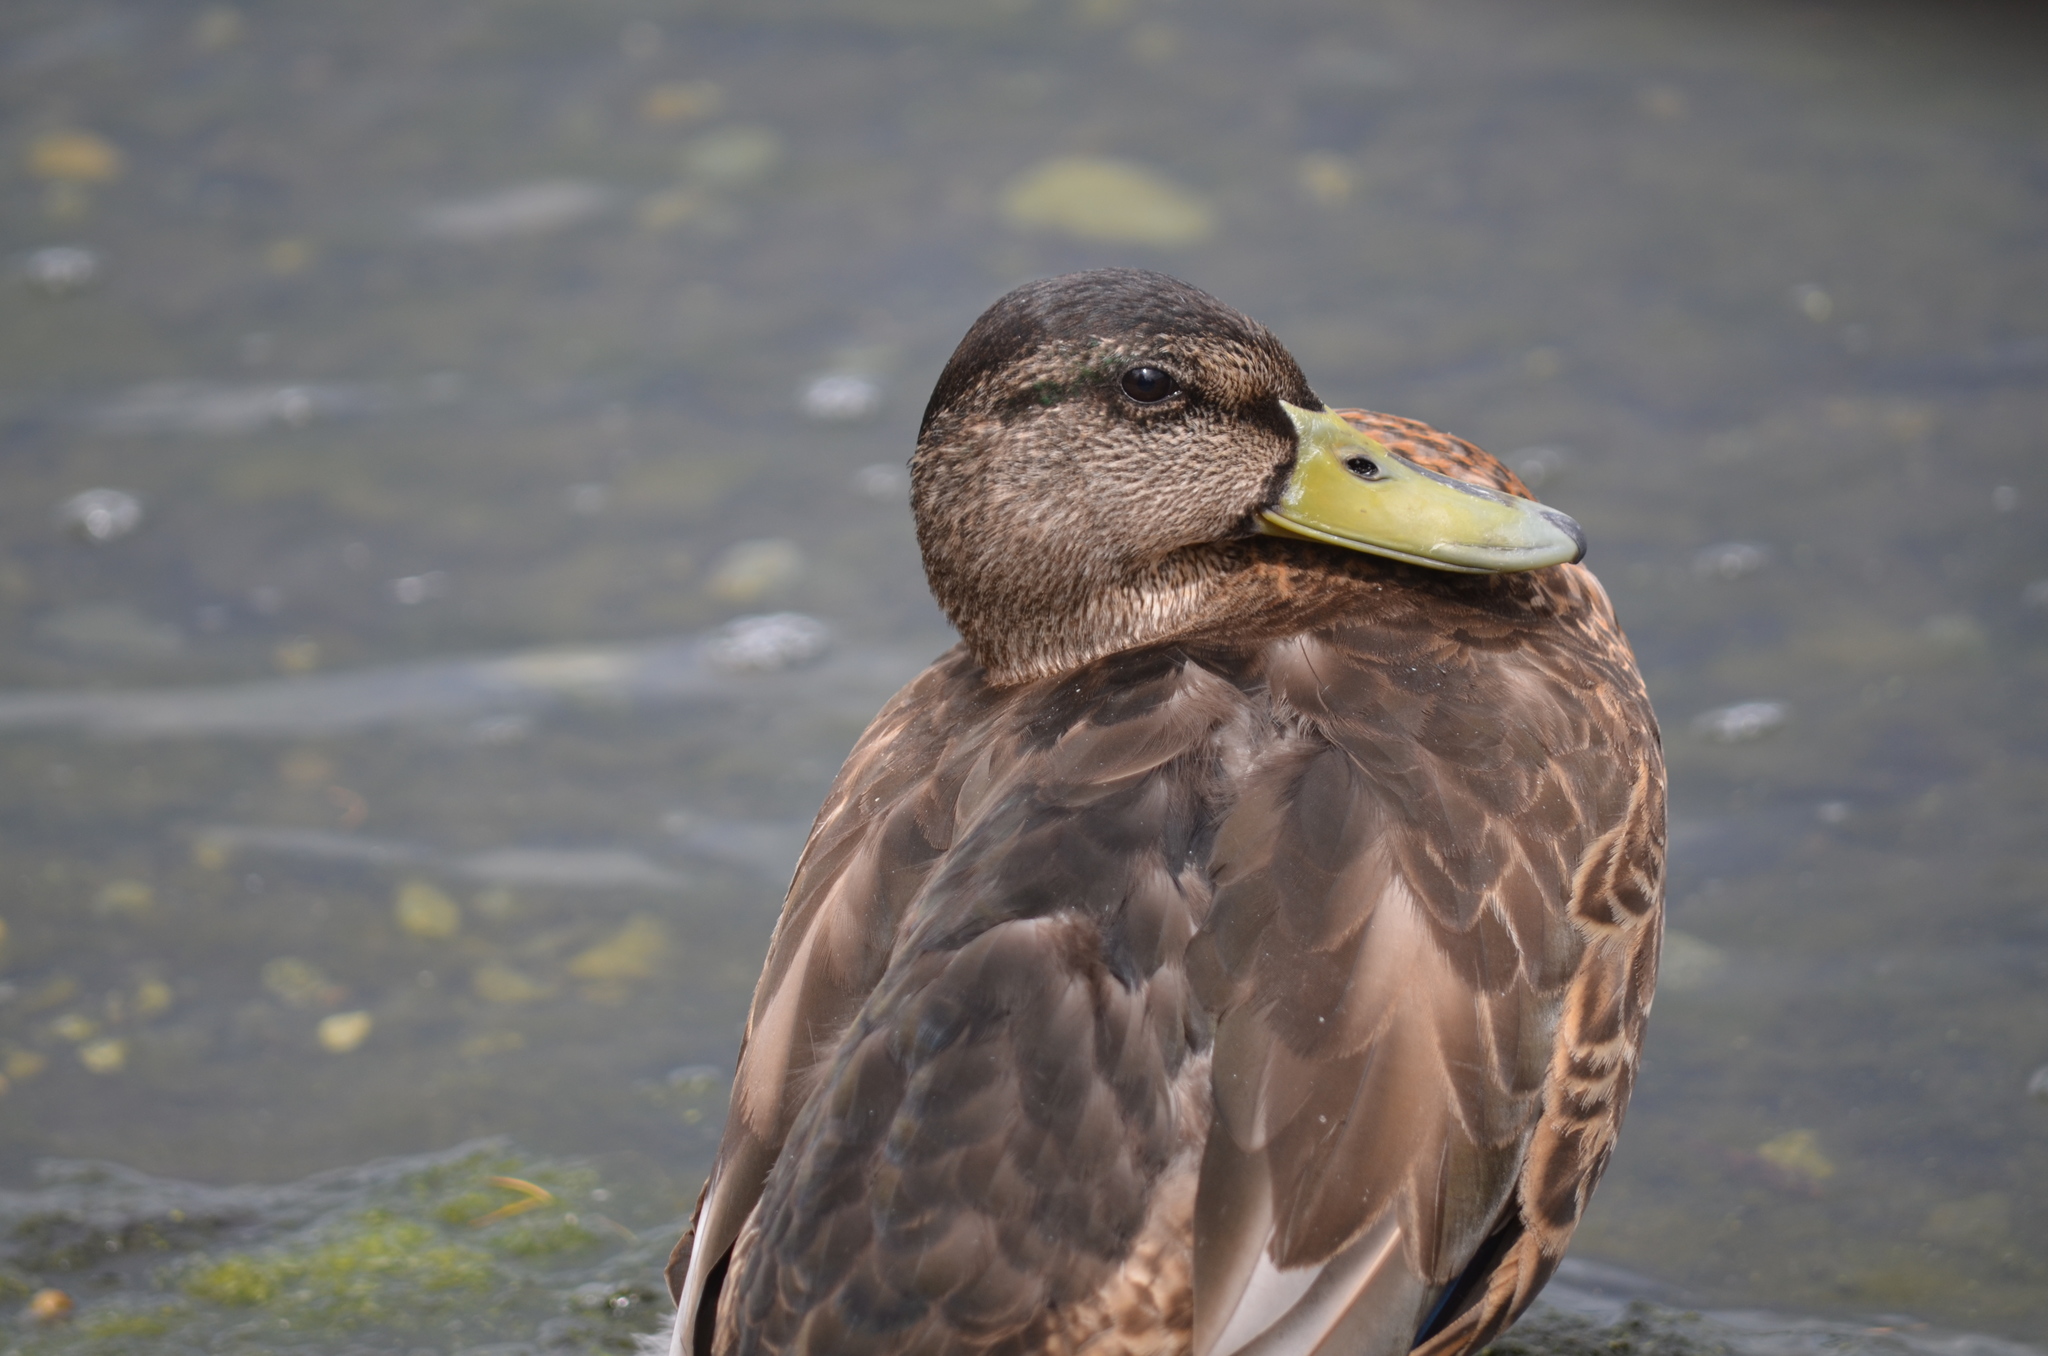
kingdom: Animalia
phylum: Chordata
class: Aves
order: Anseriformes
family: Anatidae
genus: Anas
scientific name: Anas platyrhynchos
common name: Mallard
